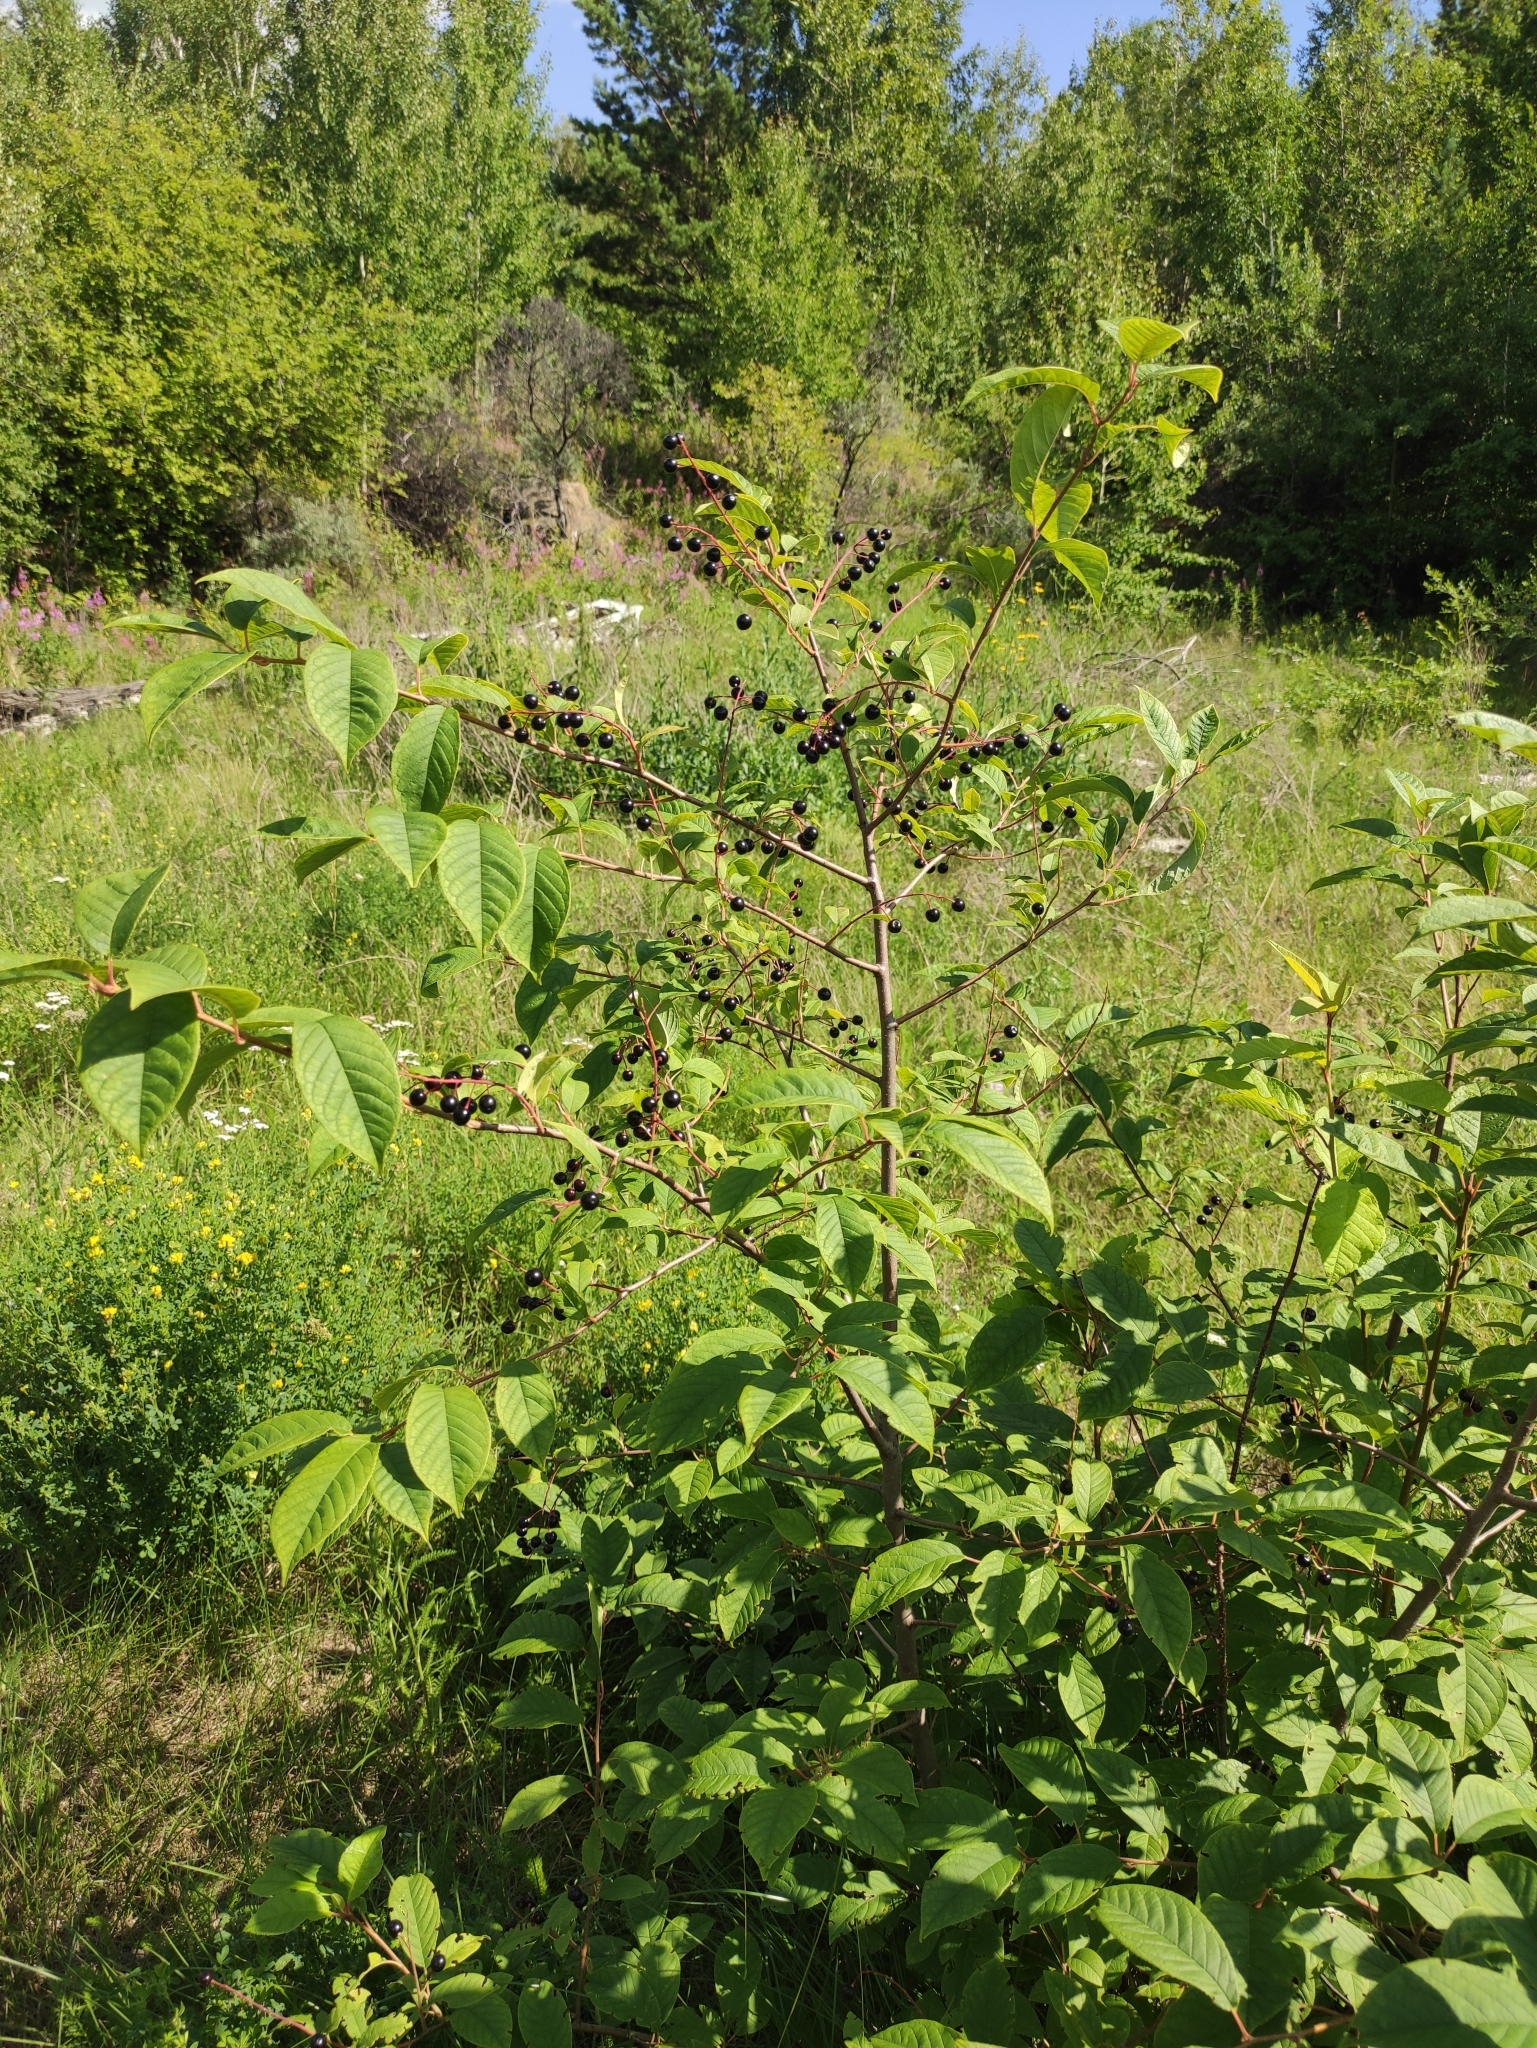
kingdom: Plantae
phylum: Tracheophyta
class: Magnoliopsida
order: Rosales
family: Rosaceae
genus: Prunus
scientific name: Prunus padus
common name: Bird cherry
